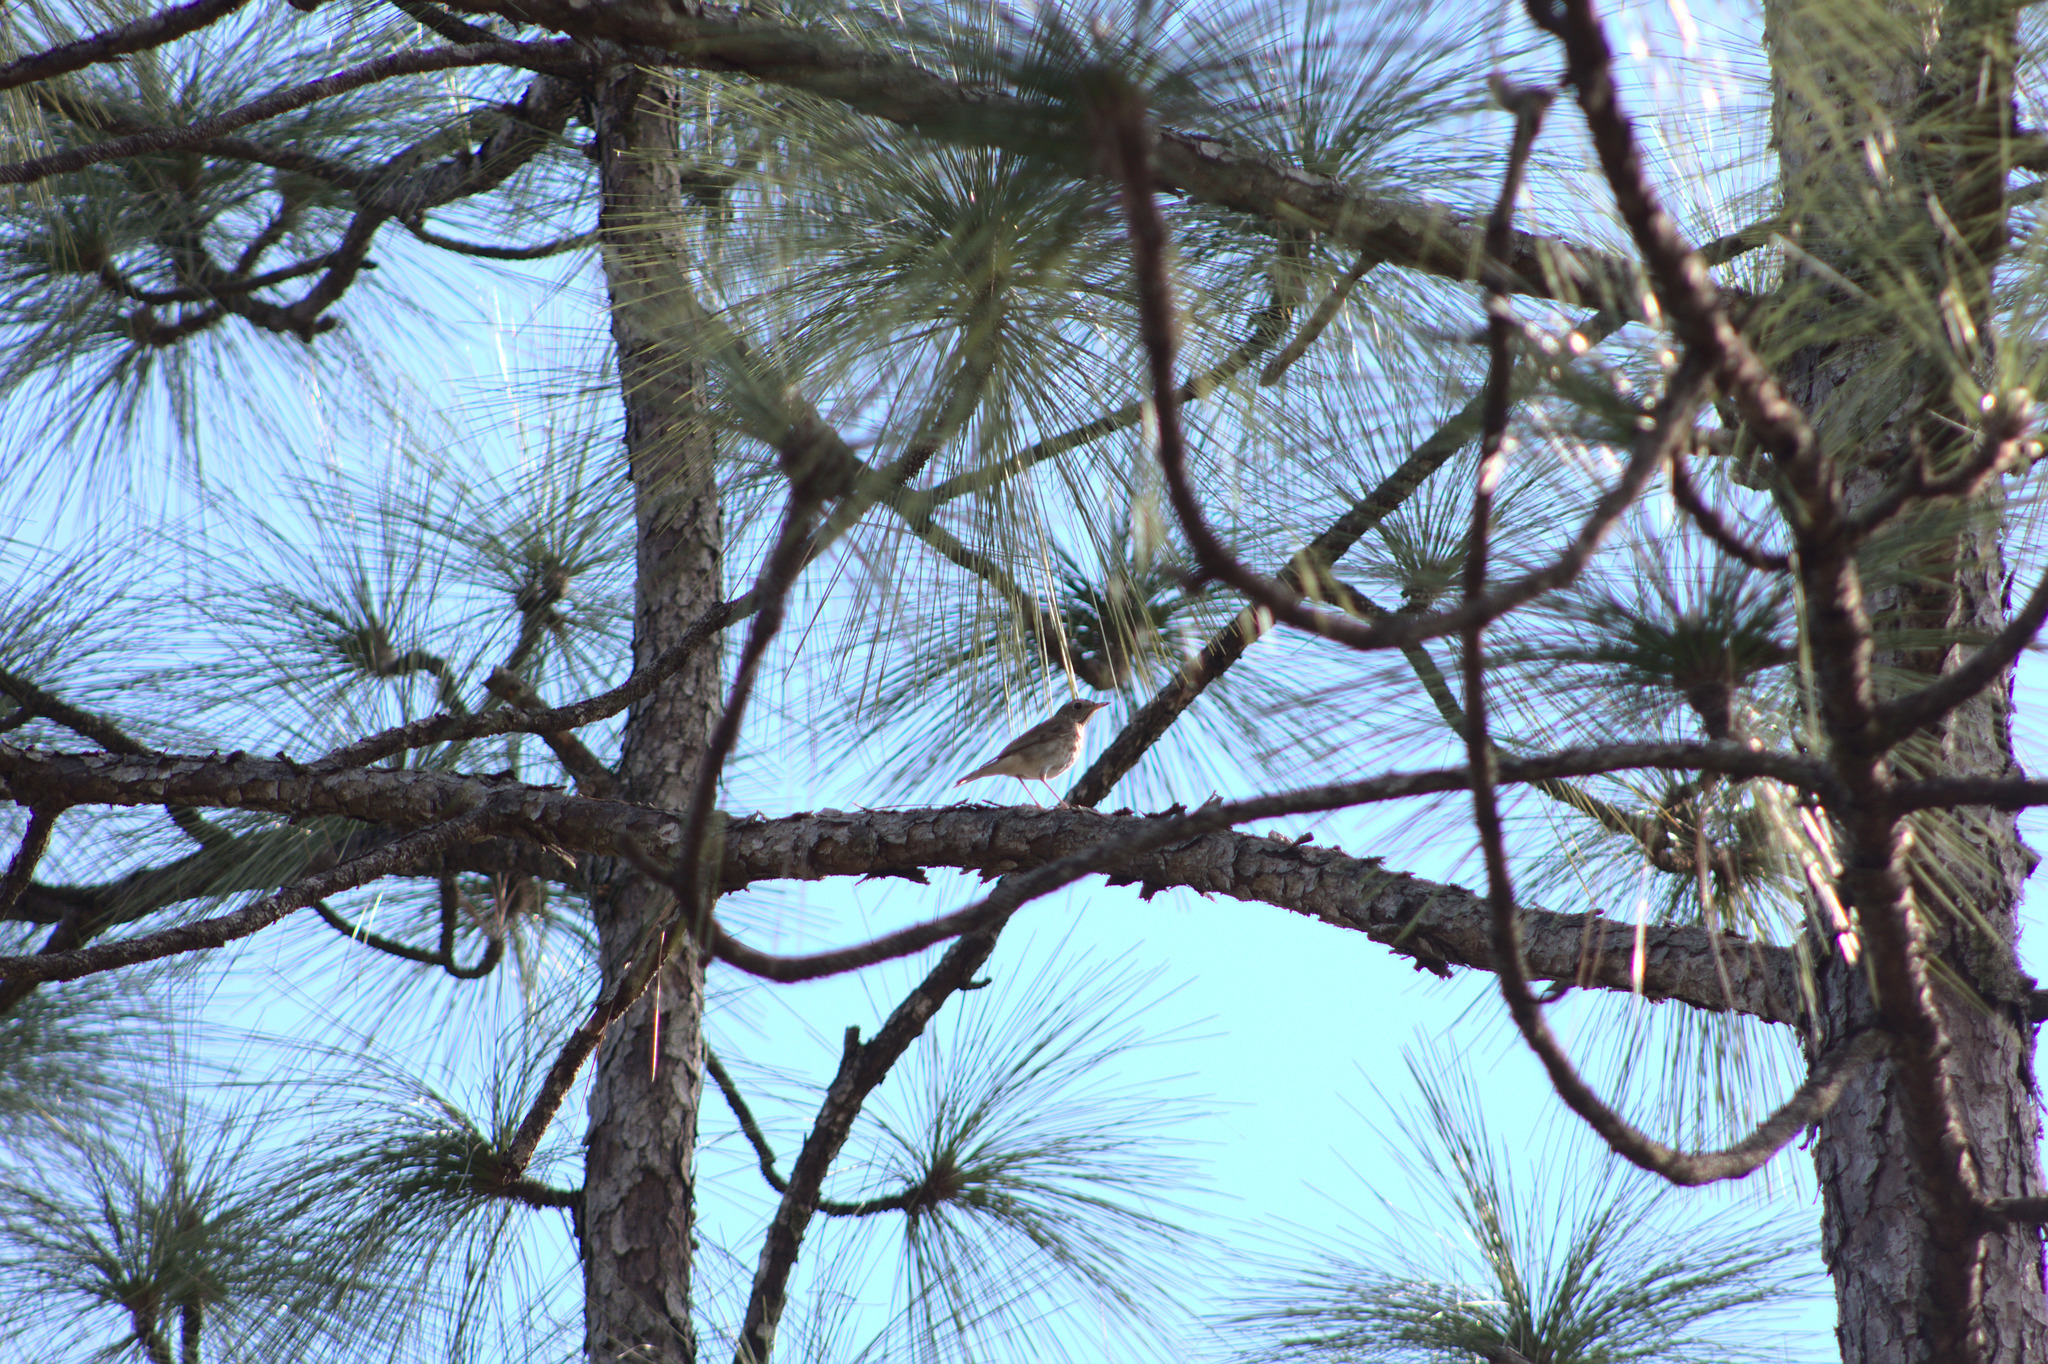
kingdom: Animalia
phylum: Chordata
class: Aves
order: Passeriformes
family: Turdidae
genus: Catharus
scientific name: Catharus guttatus
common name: Hermit thrush
